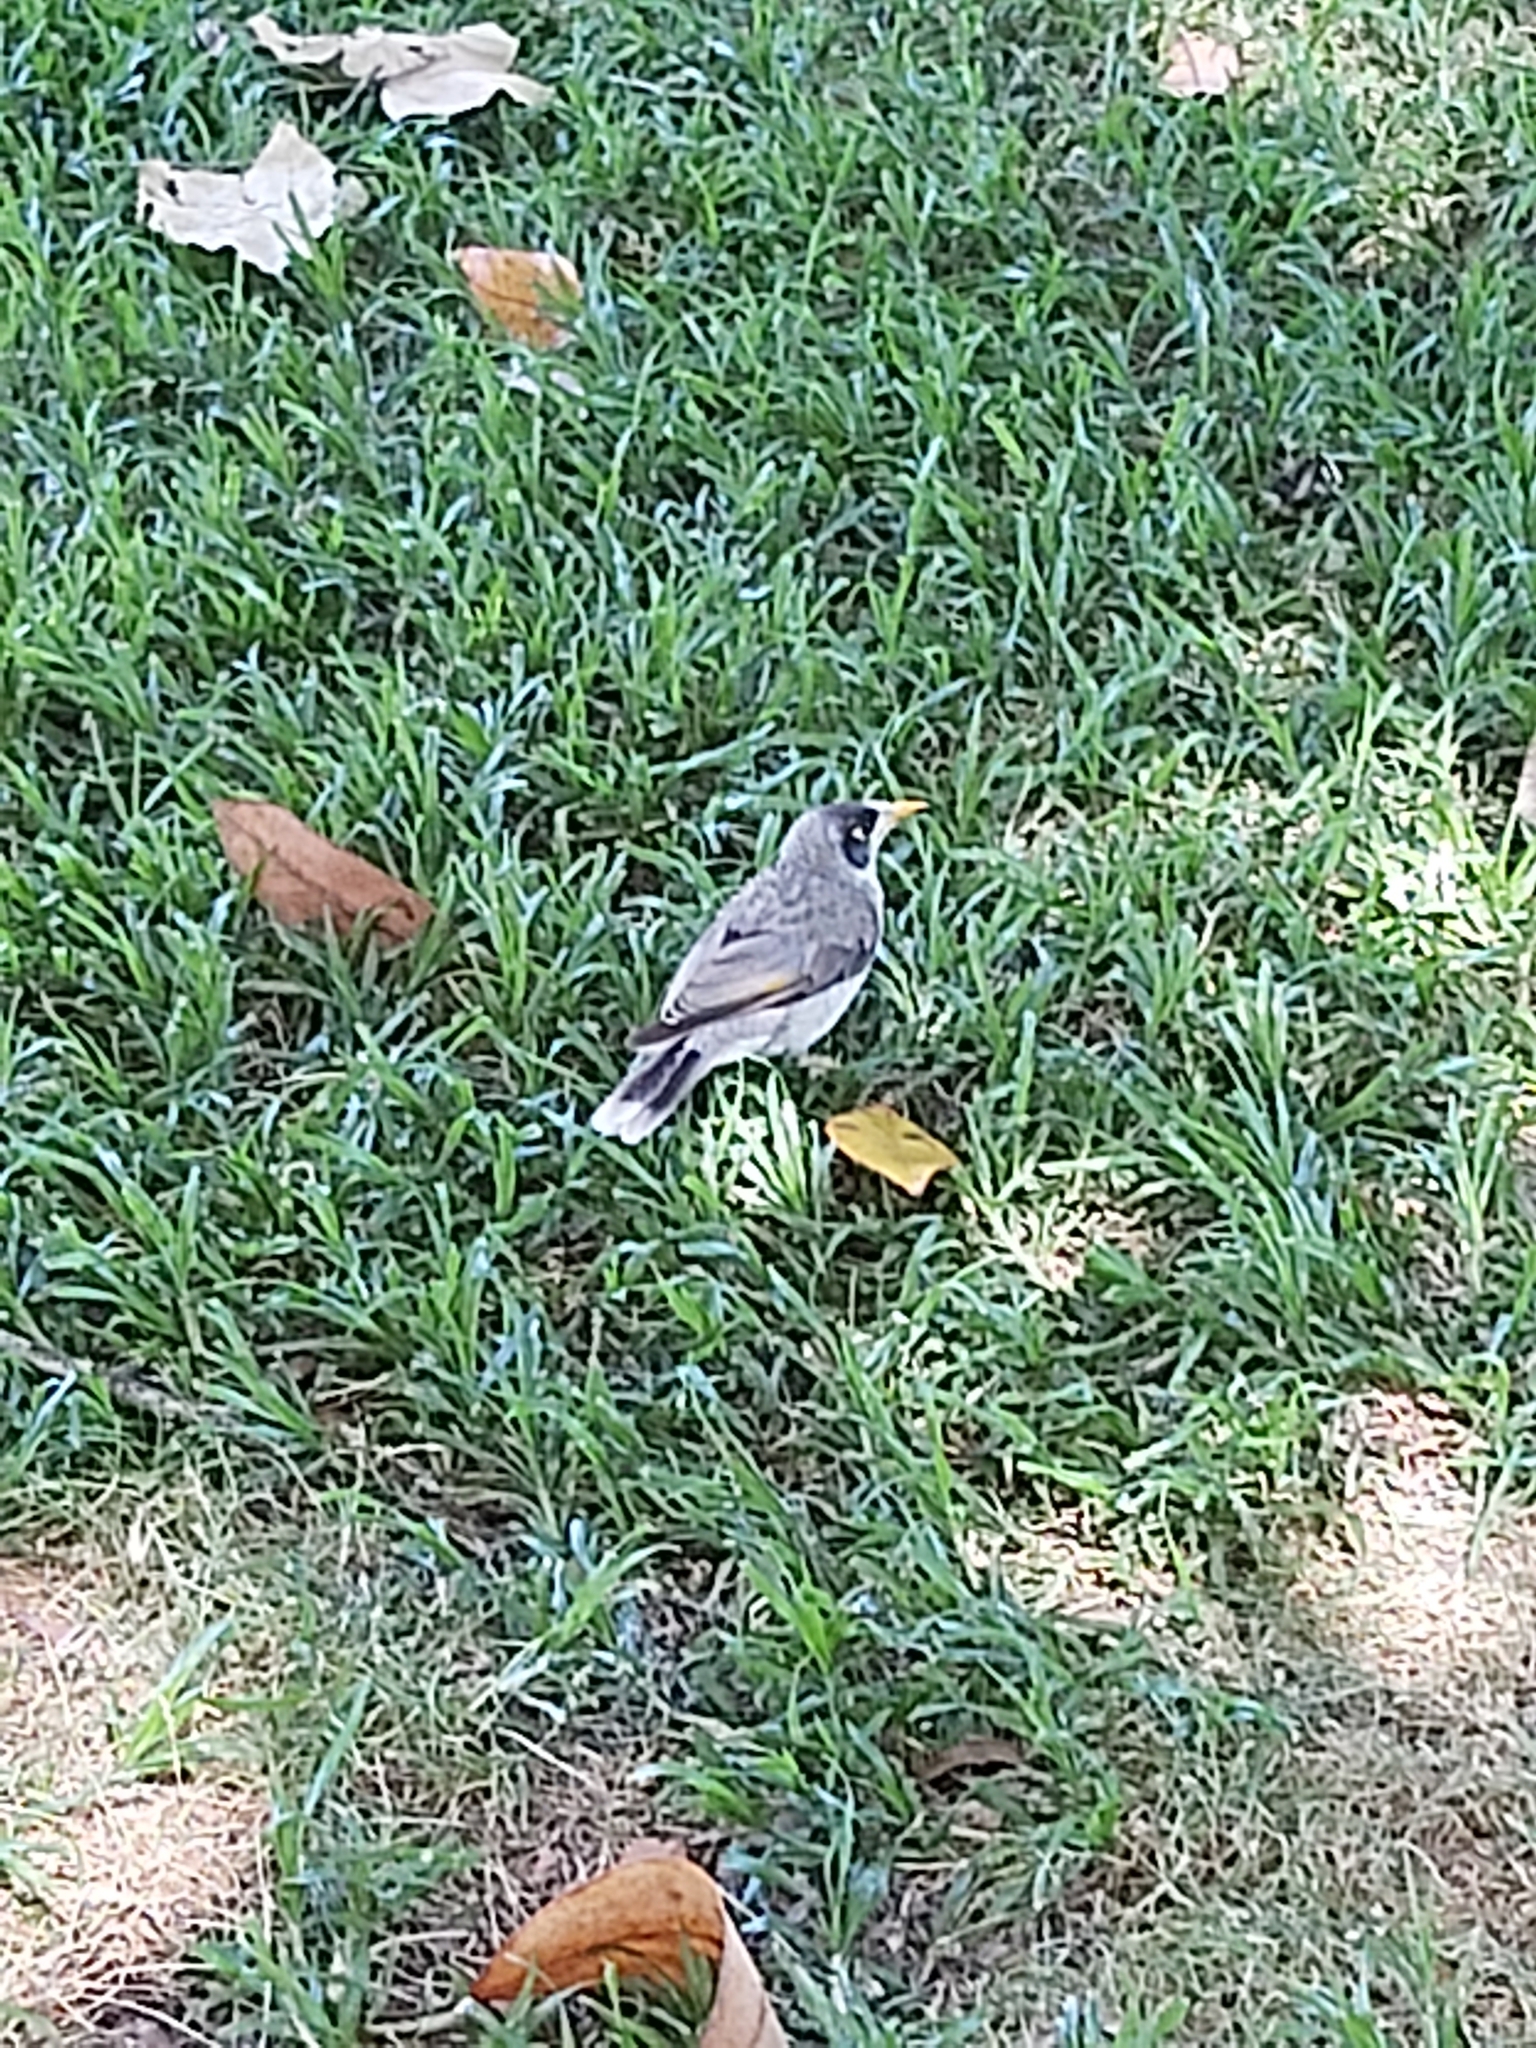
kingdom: Animalia
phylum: Chordata
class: Aves
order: Passeriformes
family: Meliphagidae
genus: Manorina
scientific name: Manorina melanocephala
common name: Noisy miner
